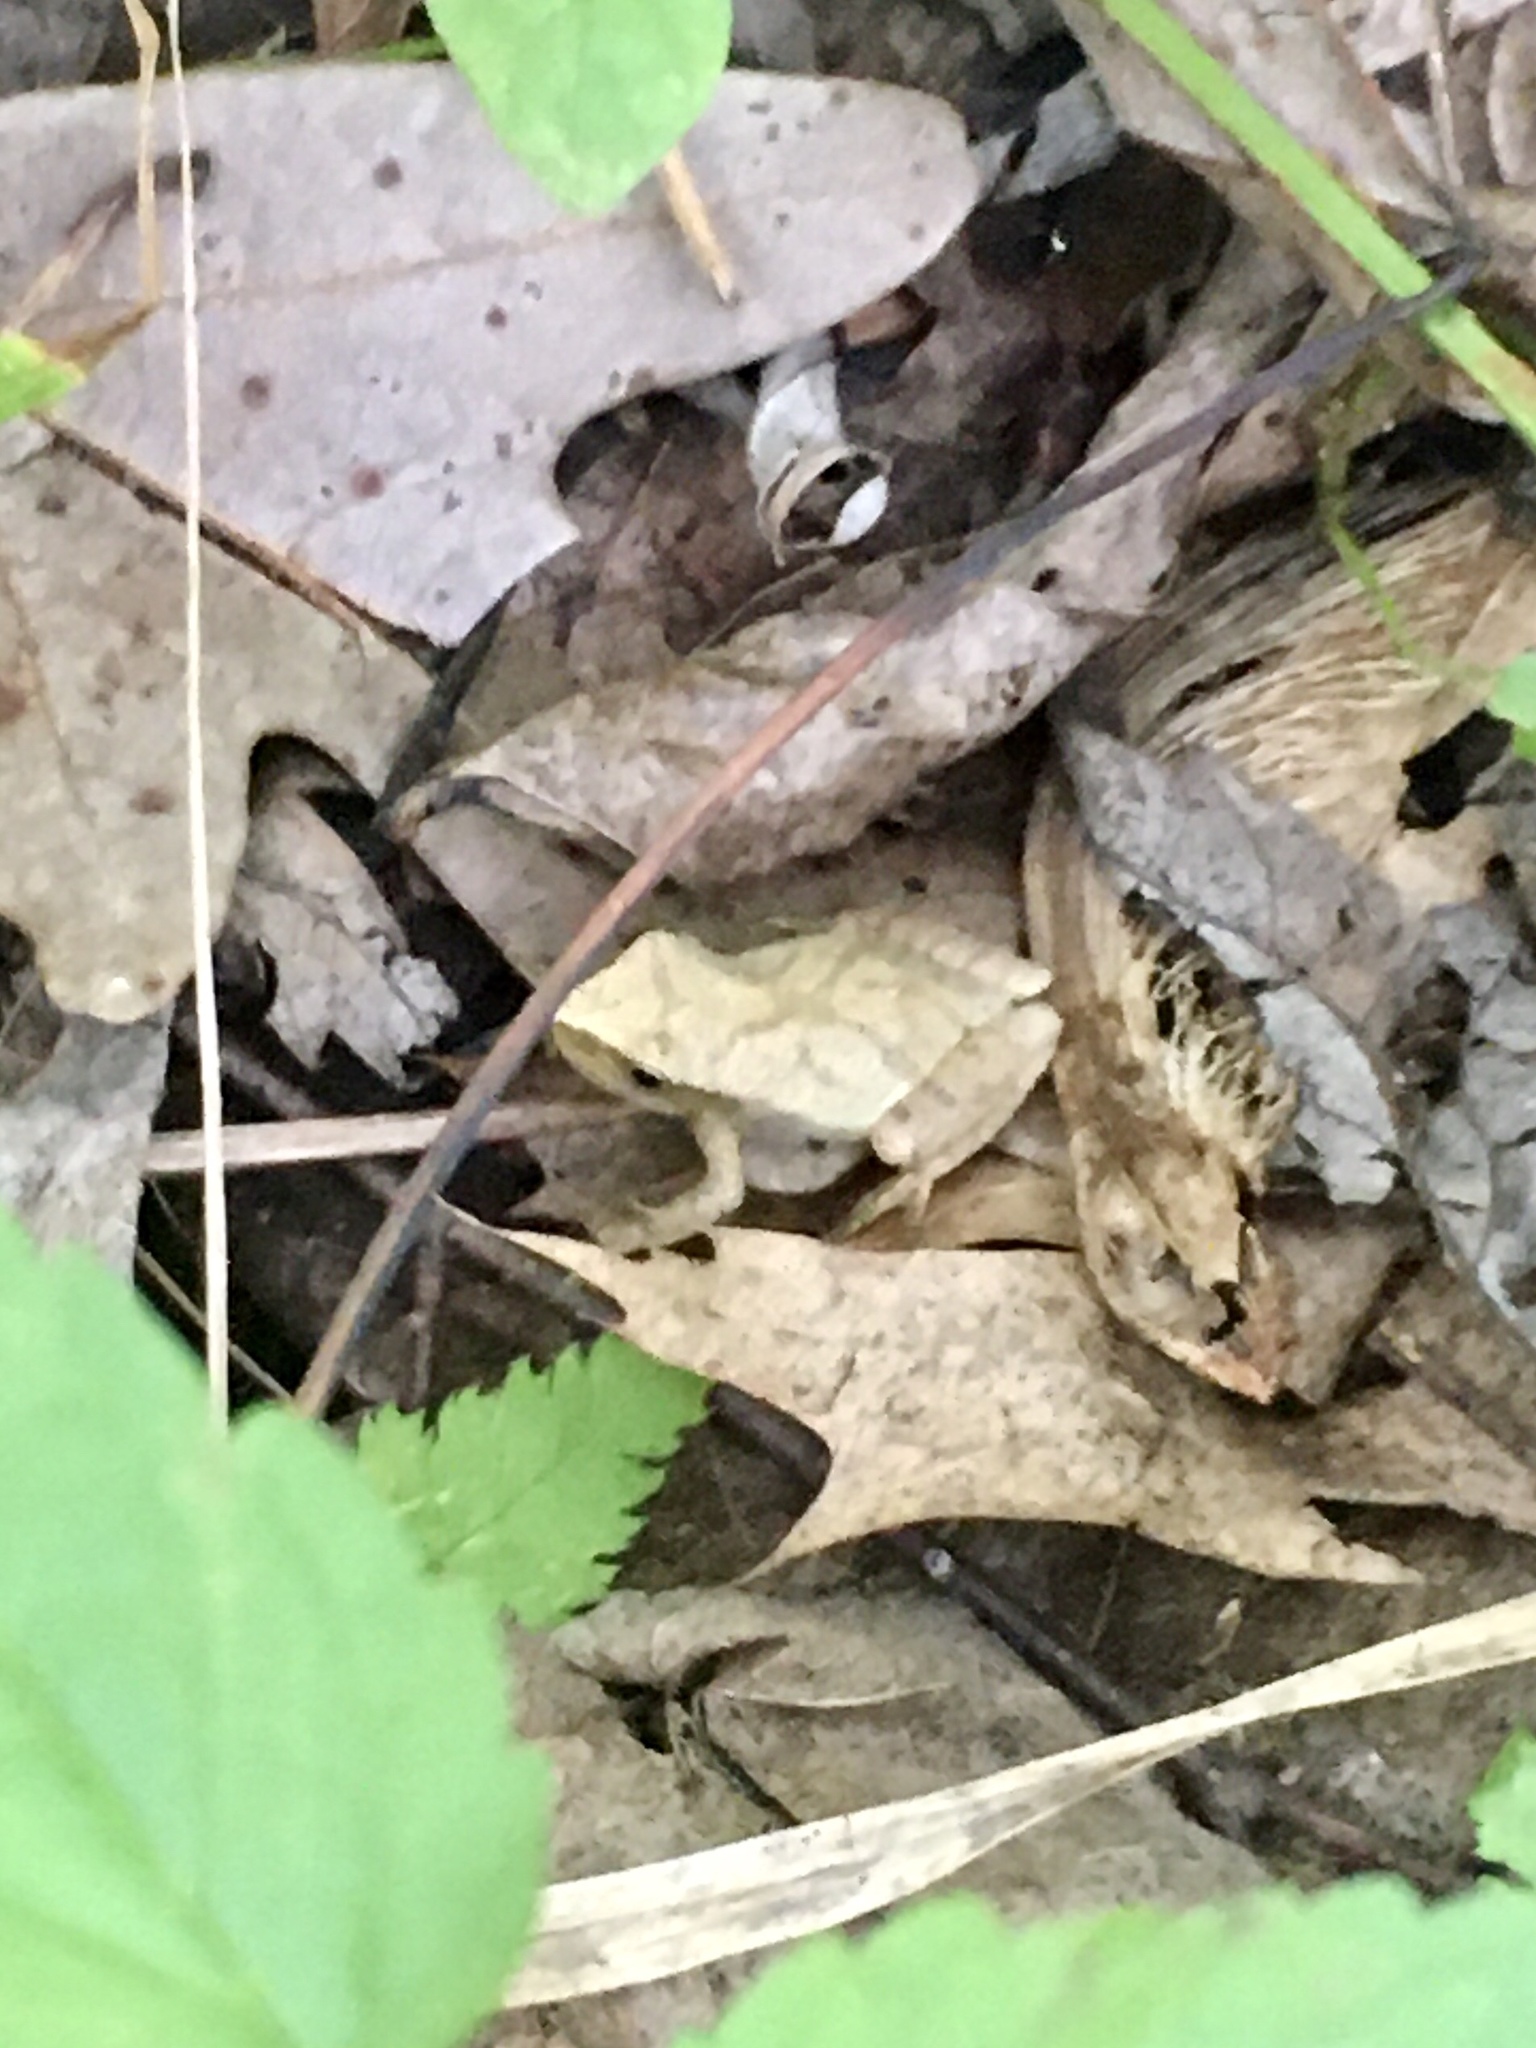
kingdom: Animalia
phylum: Chordata
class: Amphibia
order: Anura
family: Hylidae
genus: Pseudacris
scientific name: Pseudacris crucifer
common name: Spring peeper
